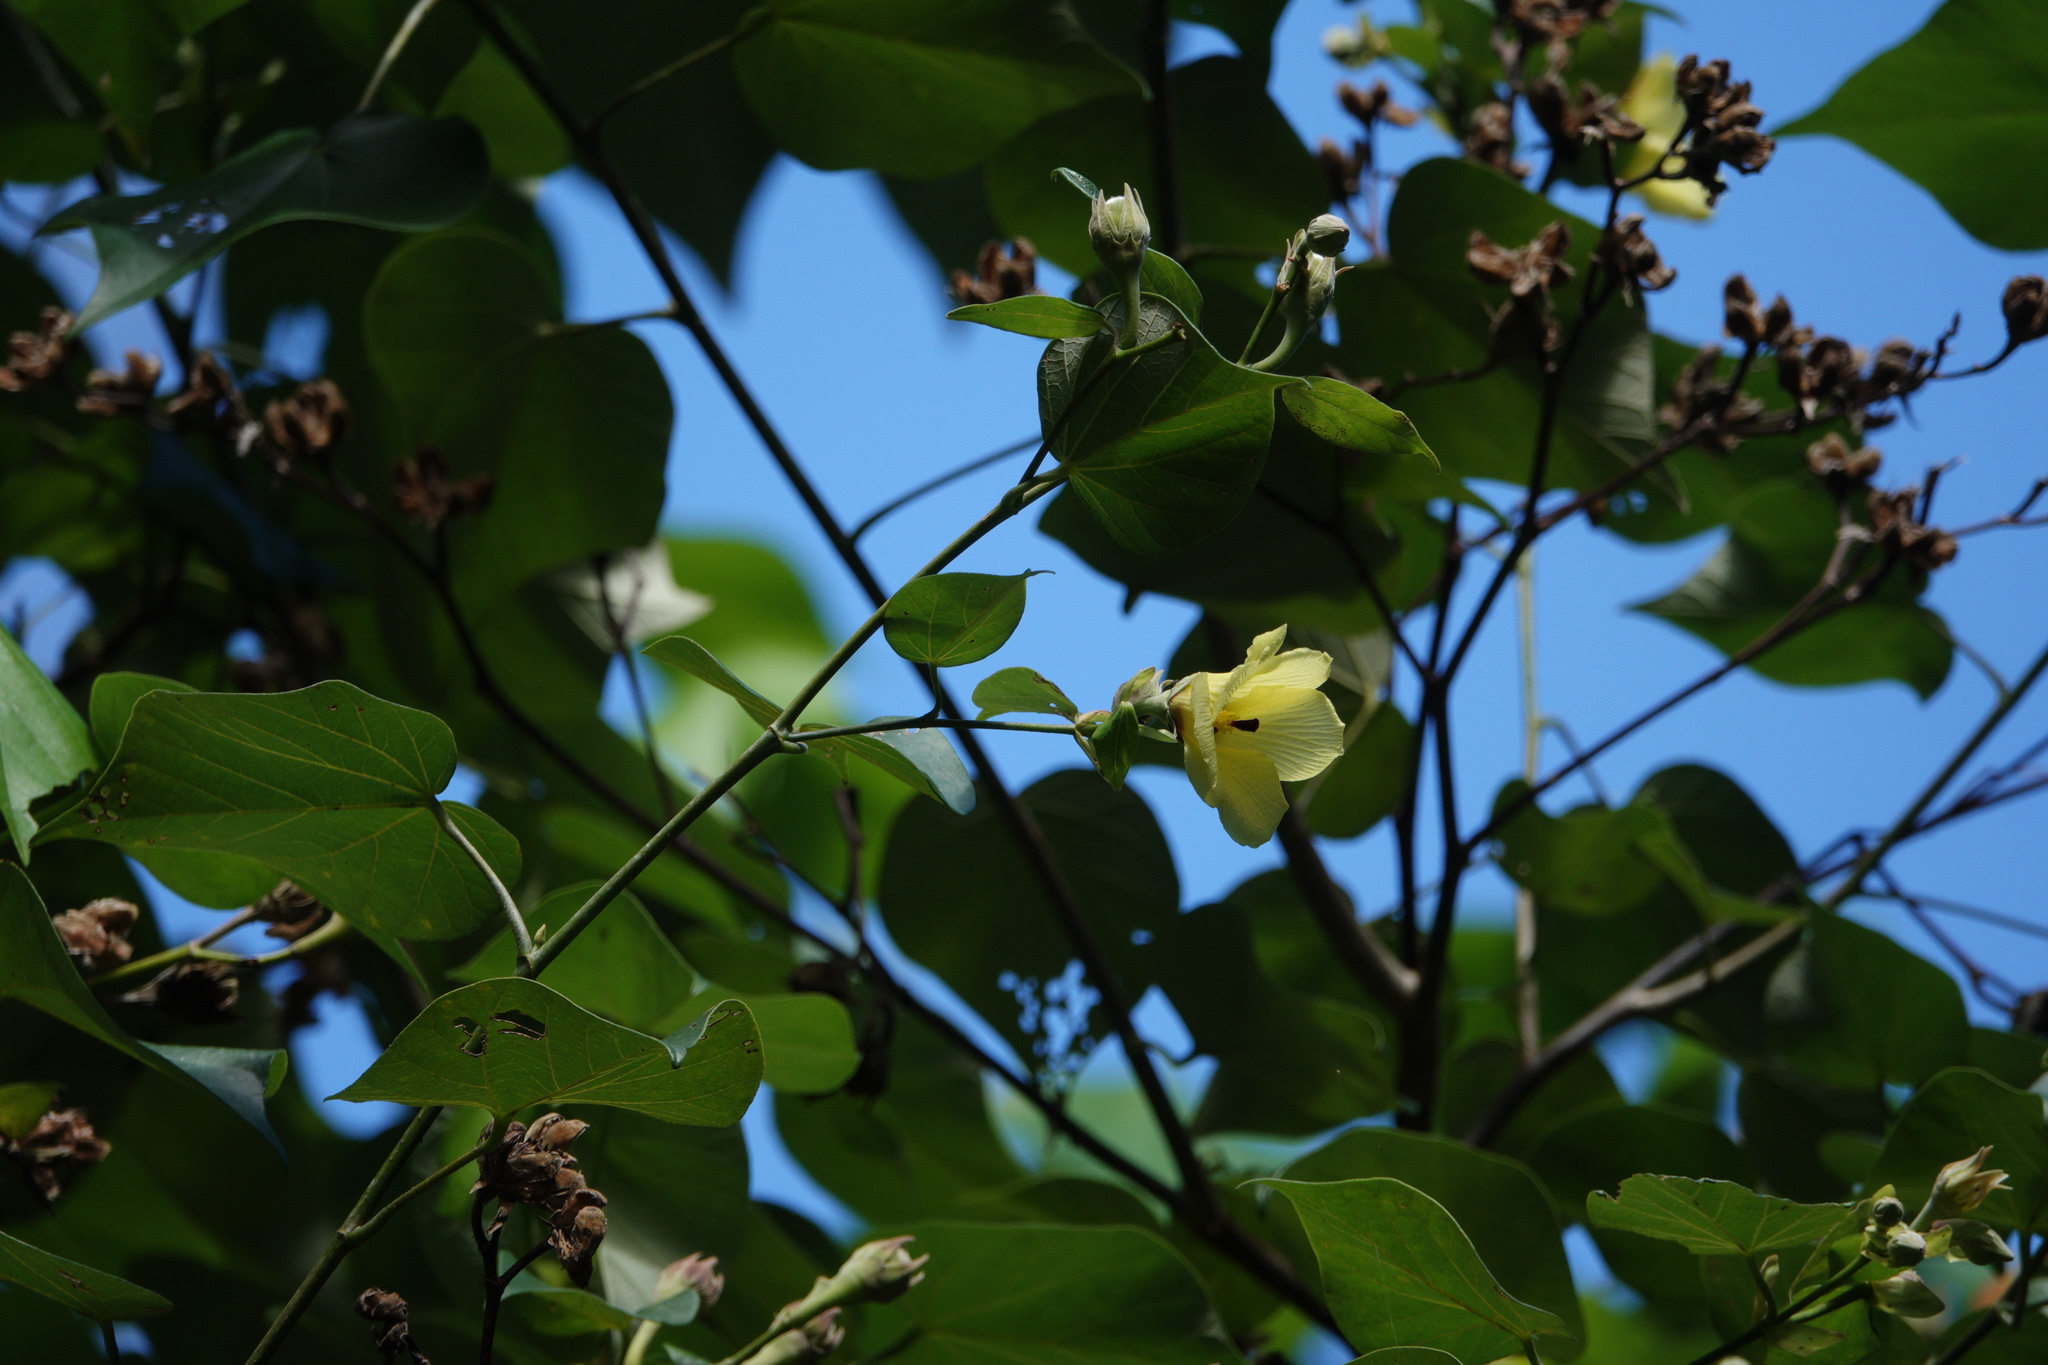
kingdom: Plantae
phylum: Tracheophyta
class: Magnoliopsida
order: Malvales
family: Malvaceae
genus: Talipariti
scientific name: Talipariti tiliaceum
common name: Sea hibiscus
